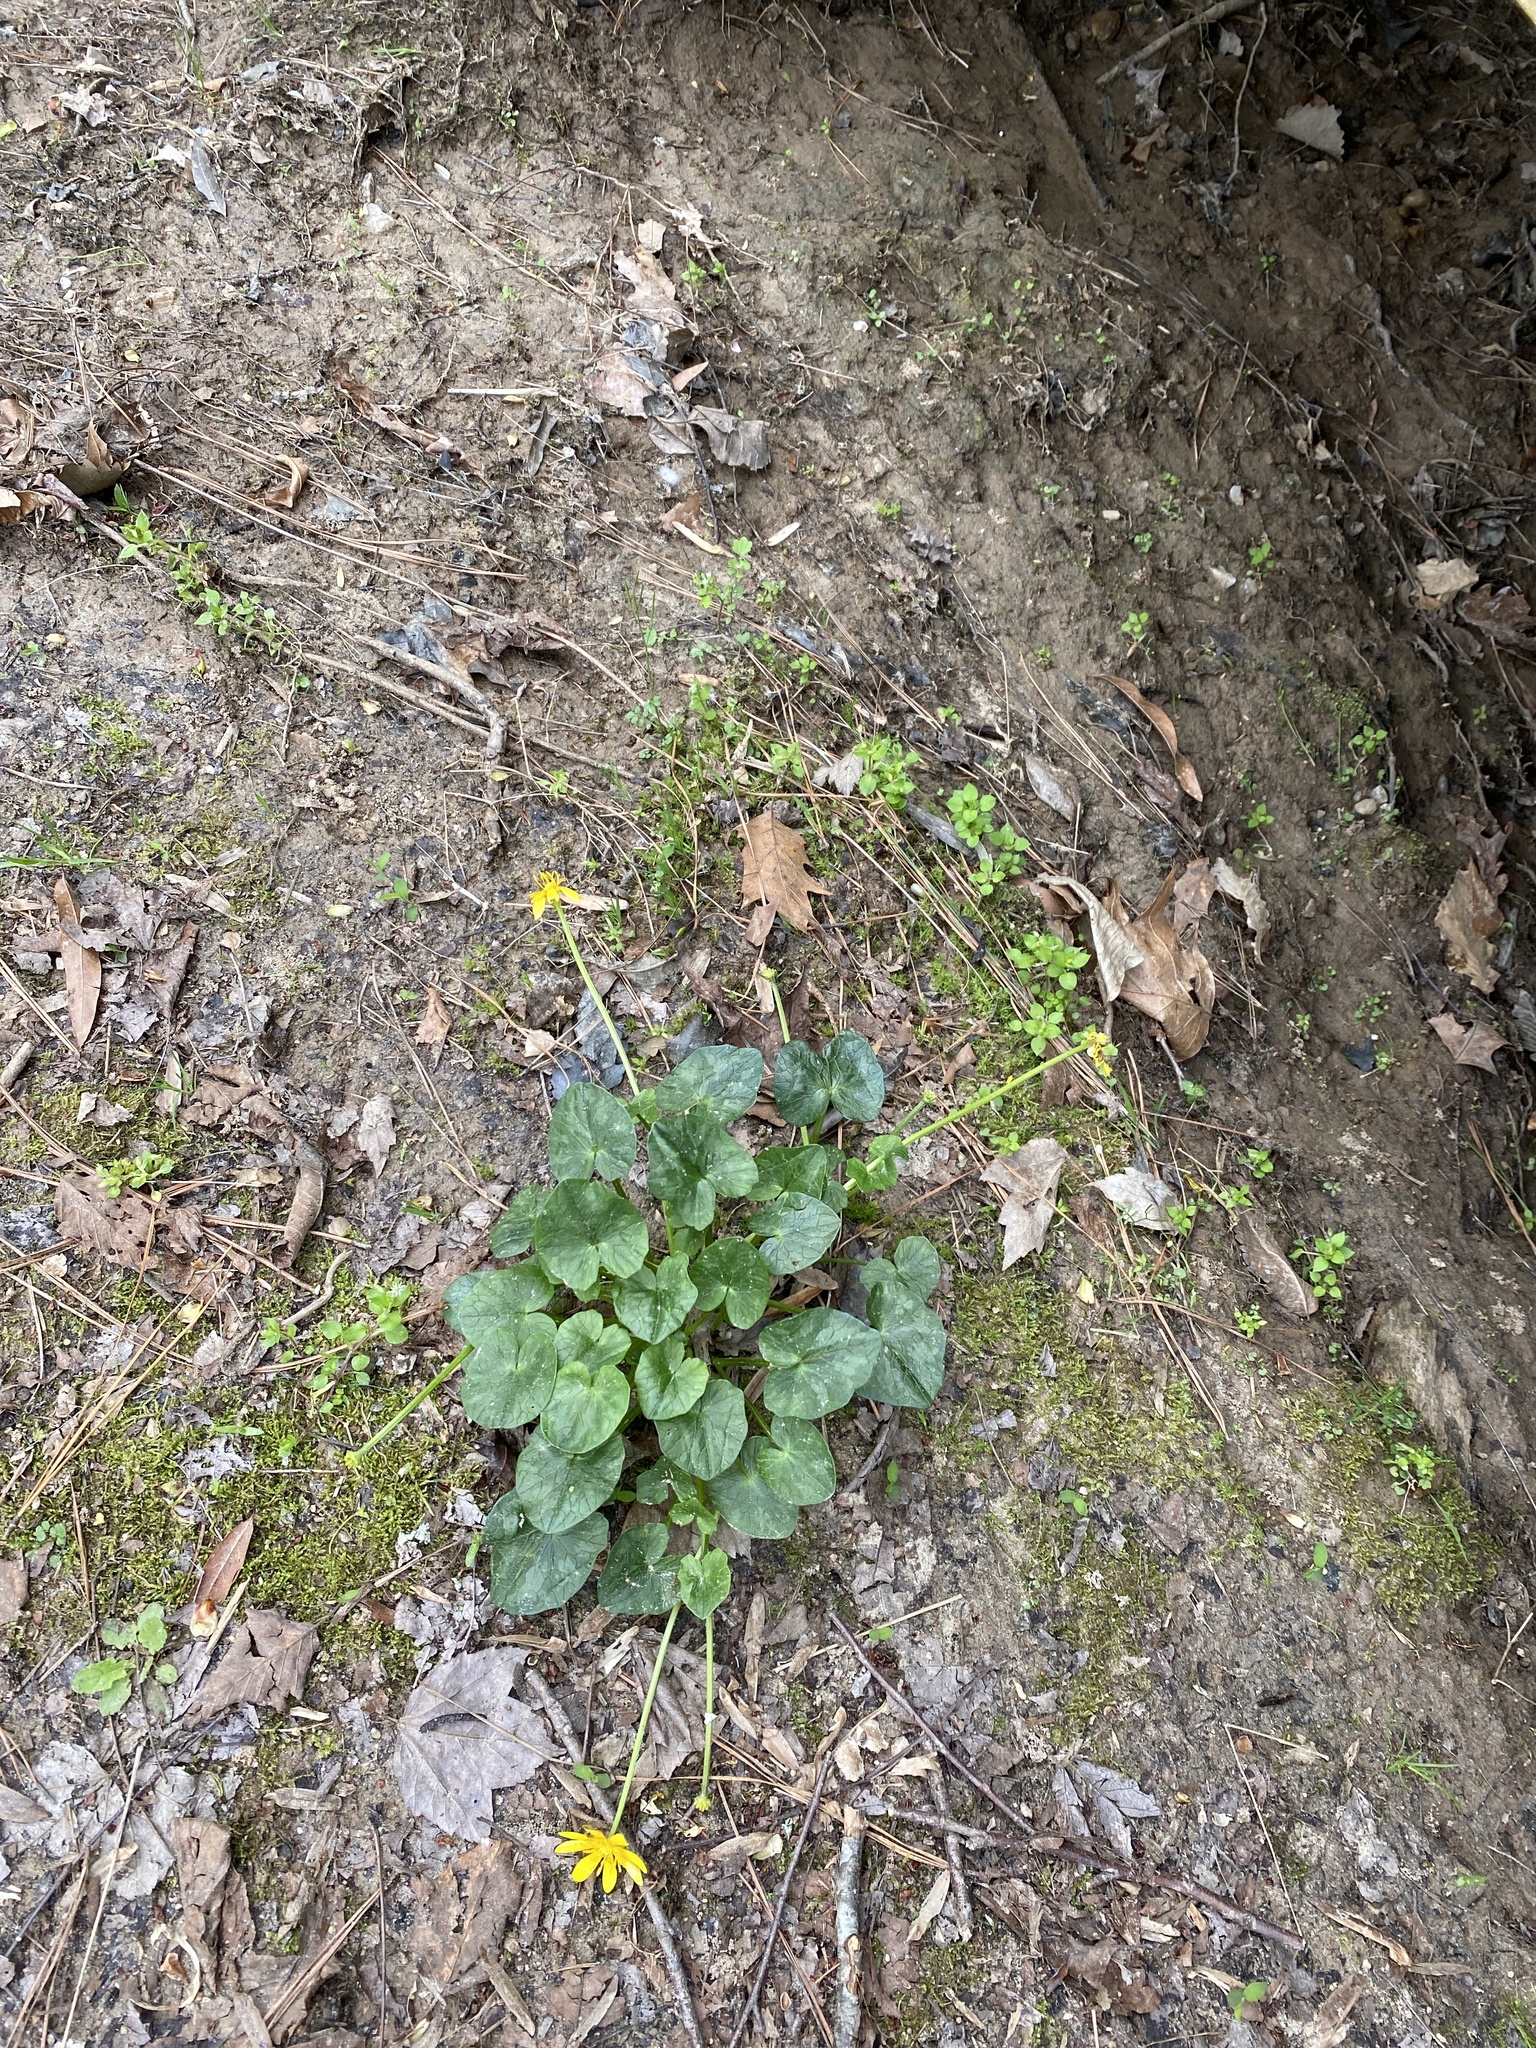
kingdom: Plantae
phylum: Tracheophyta
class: Magnoliopsida
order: Ranunculales
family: Ranunculaceae
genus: Ficaria
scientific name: Ficaria verna
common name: Lesser celandine
